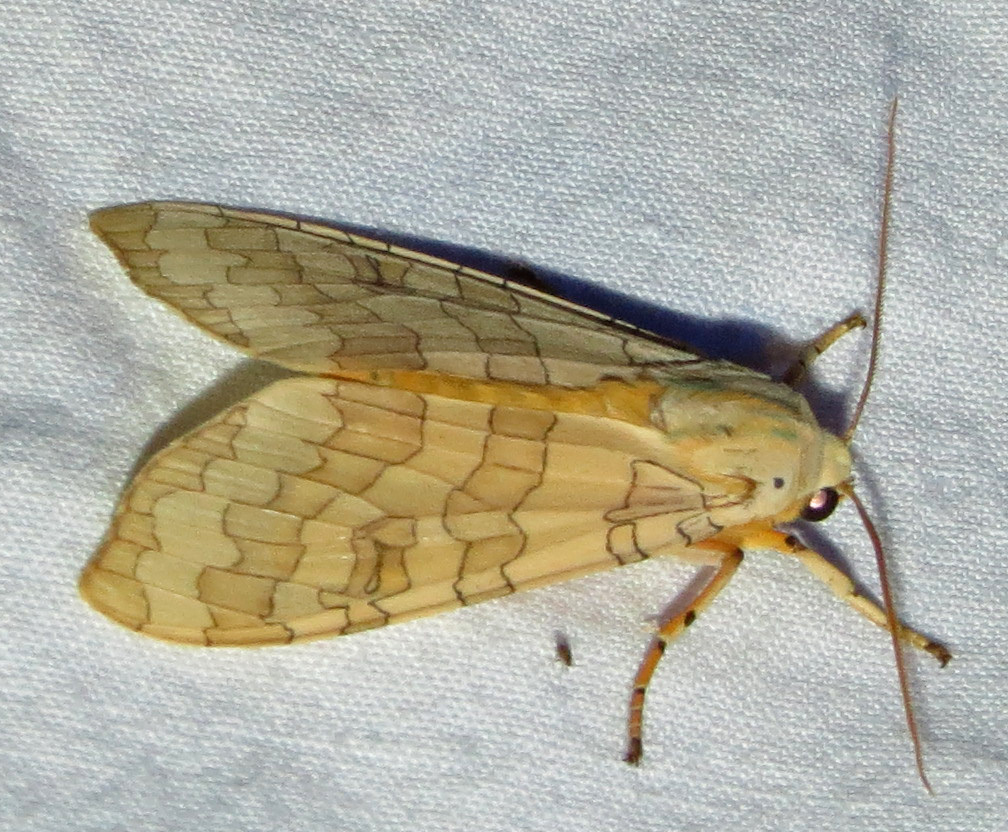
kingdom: Animalia
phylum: Arthropoda
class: Insecta
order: Lepidoptera
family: Erebidae
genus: Halysidota
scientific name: Halysidota
